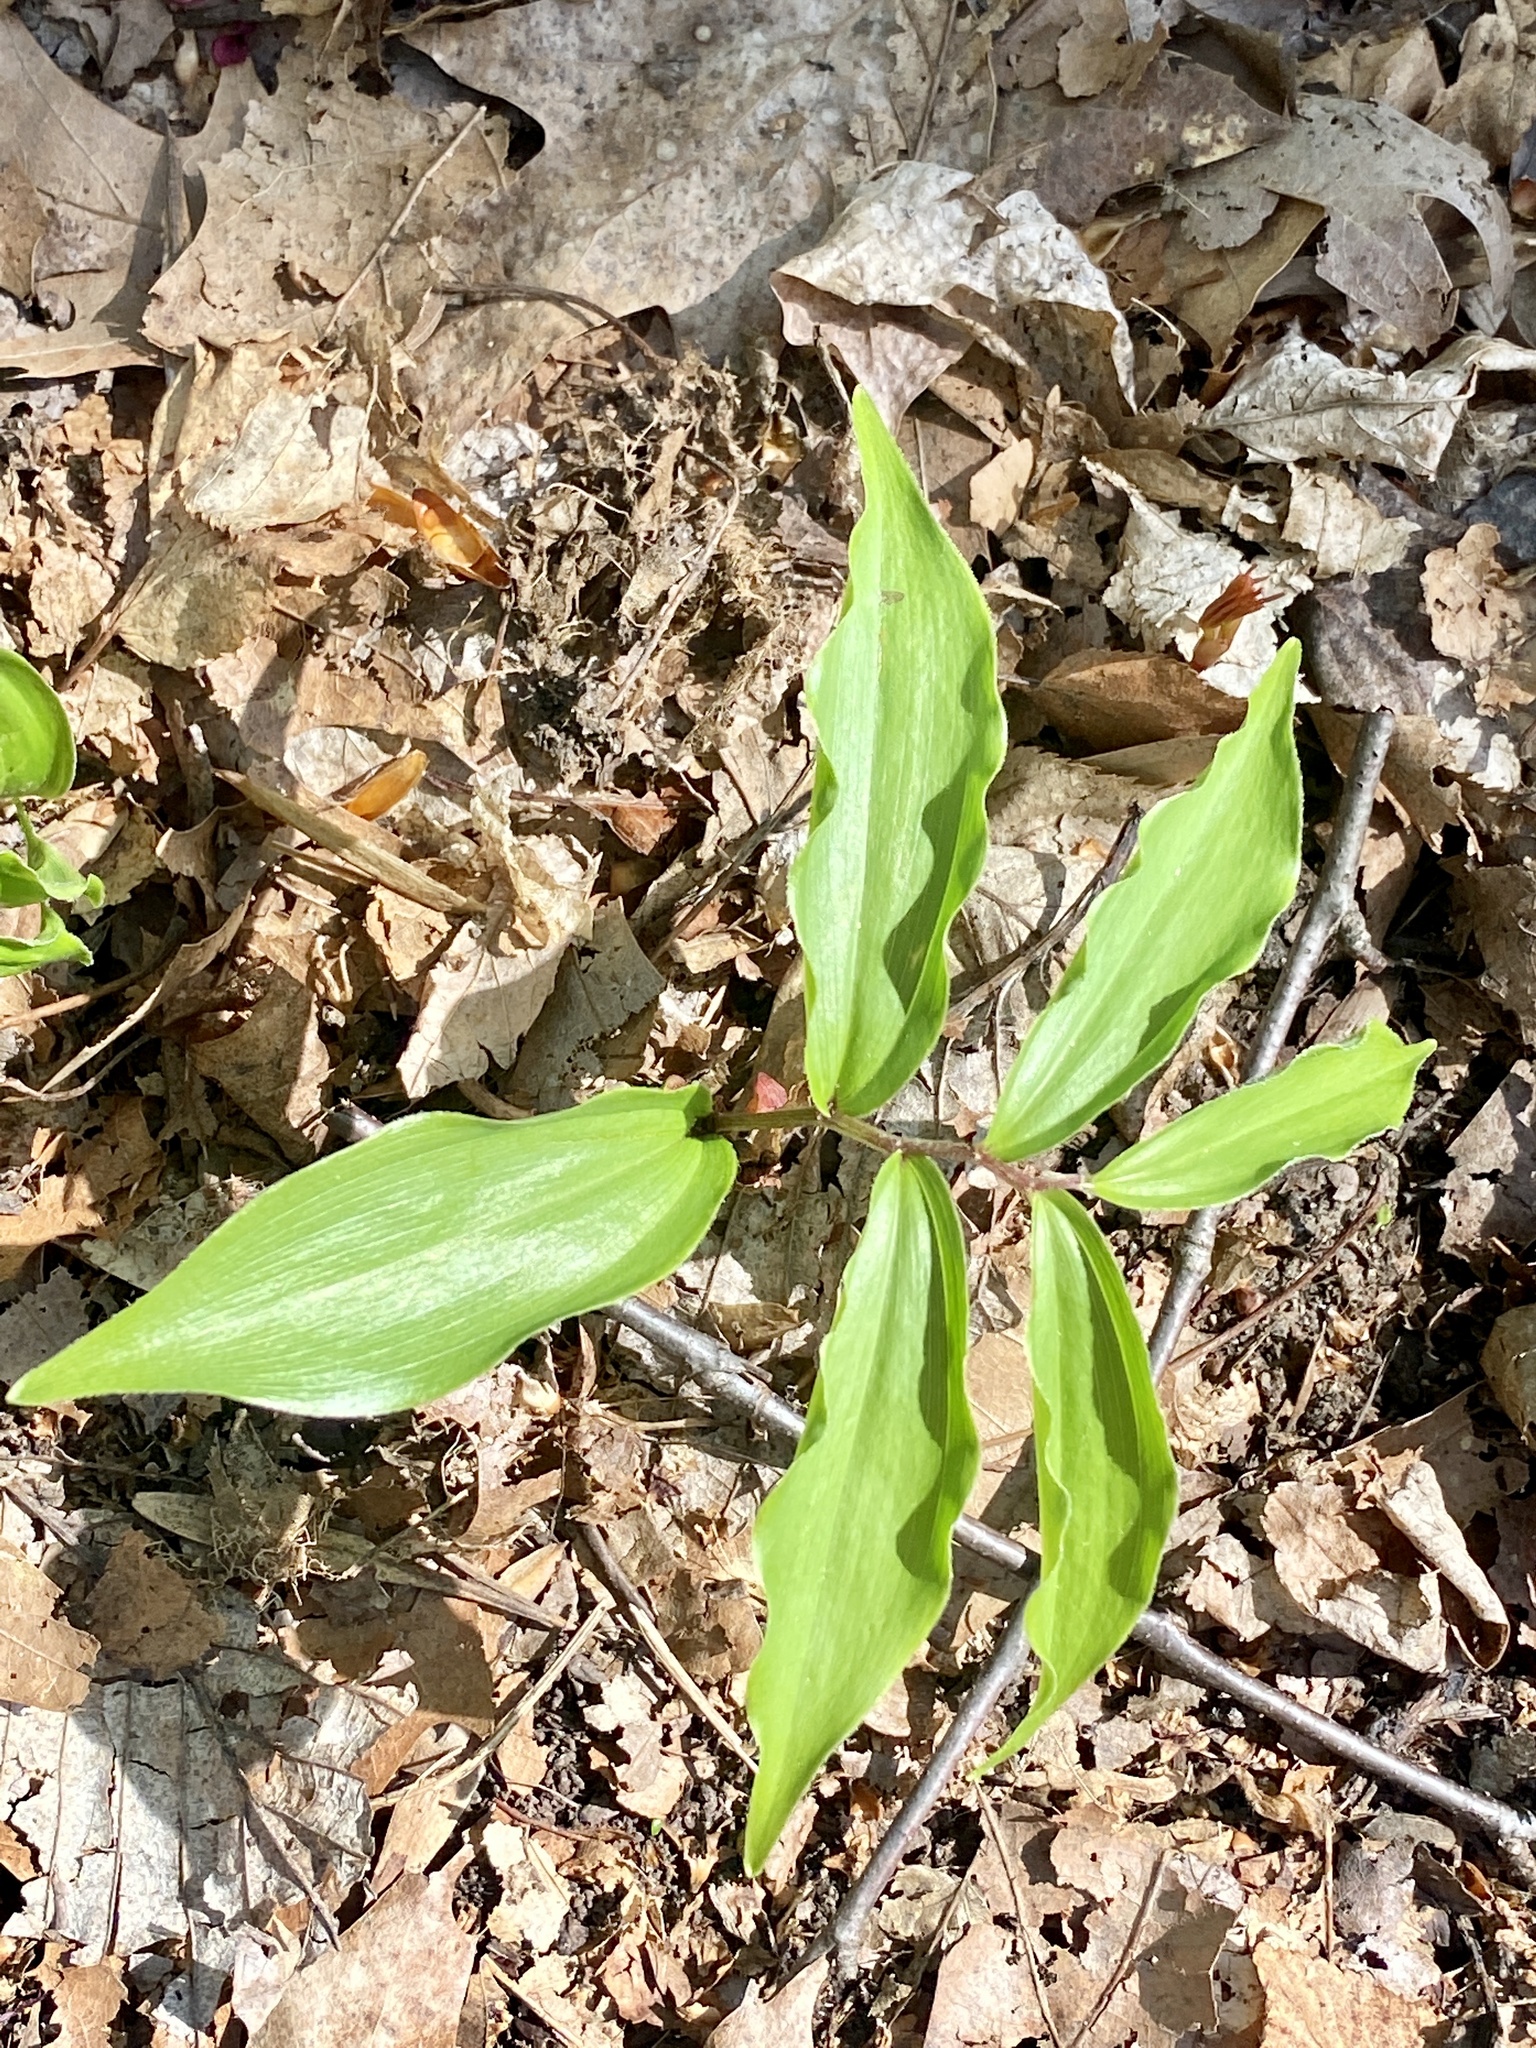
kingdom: Plantae
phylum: Tracheophyta
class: Liliopsida
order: Asparagales
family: Asparagaceae
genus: Maianthemum
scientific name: Maianthemum racemosum
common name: False spikenard
